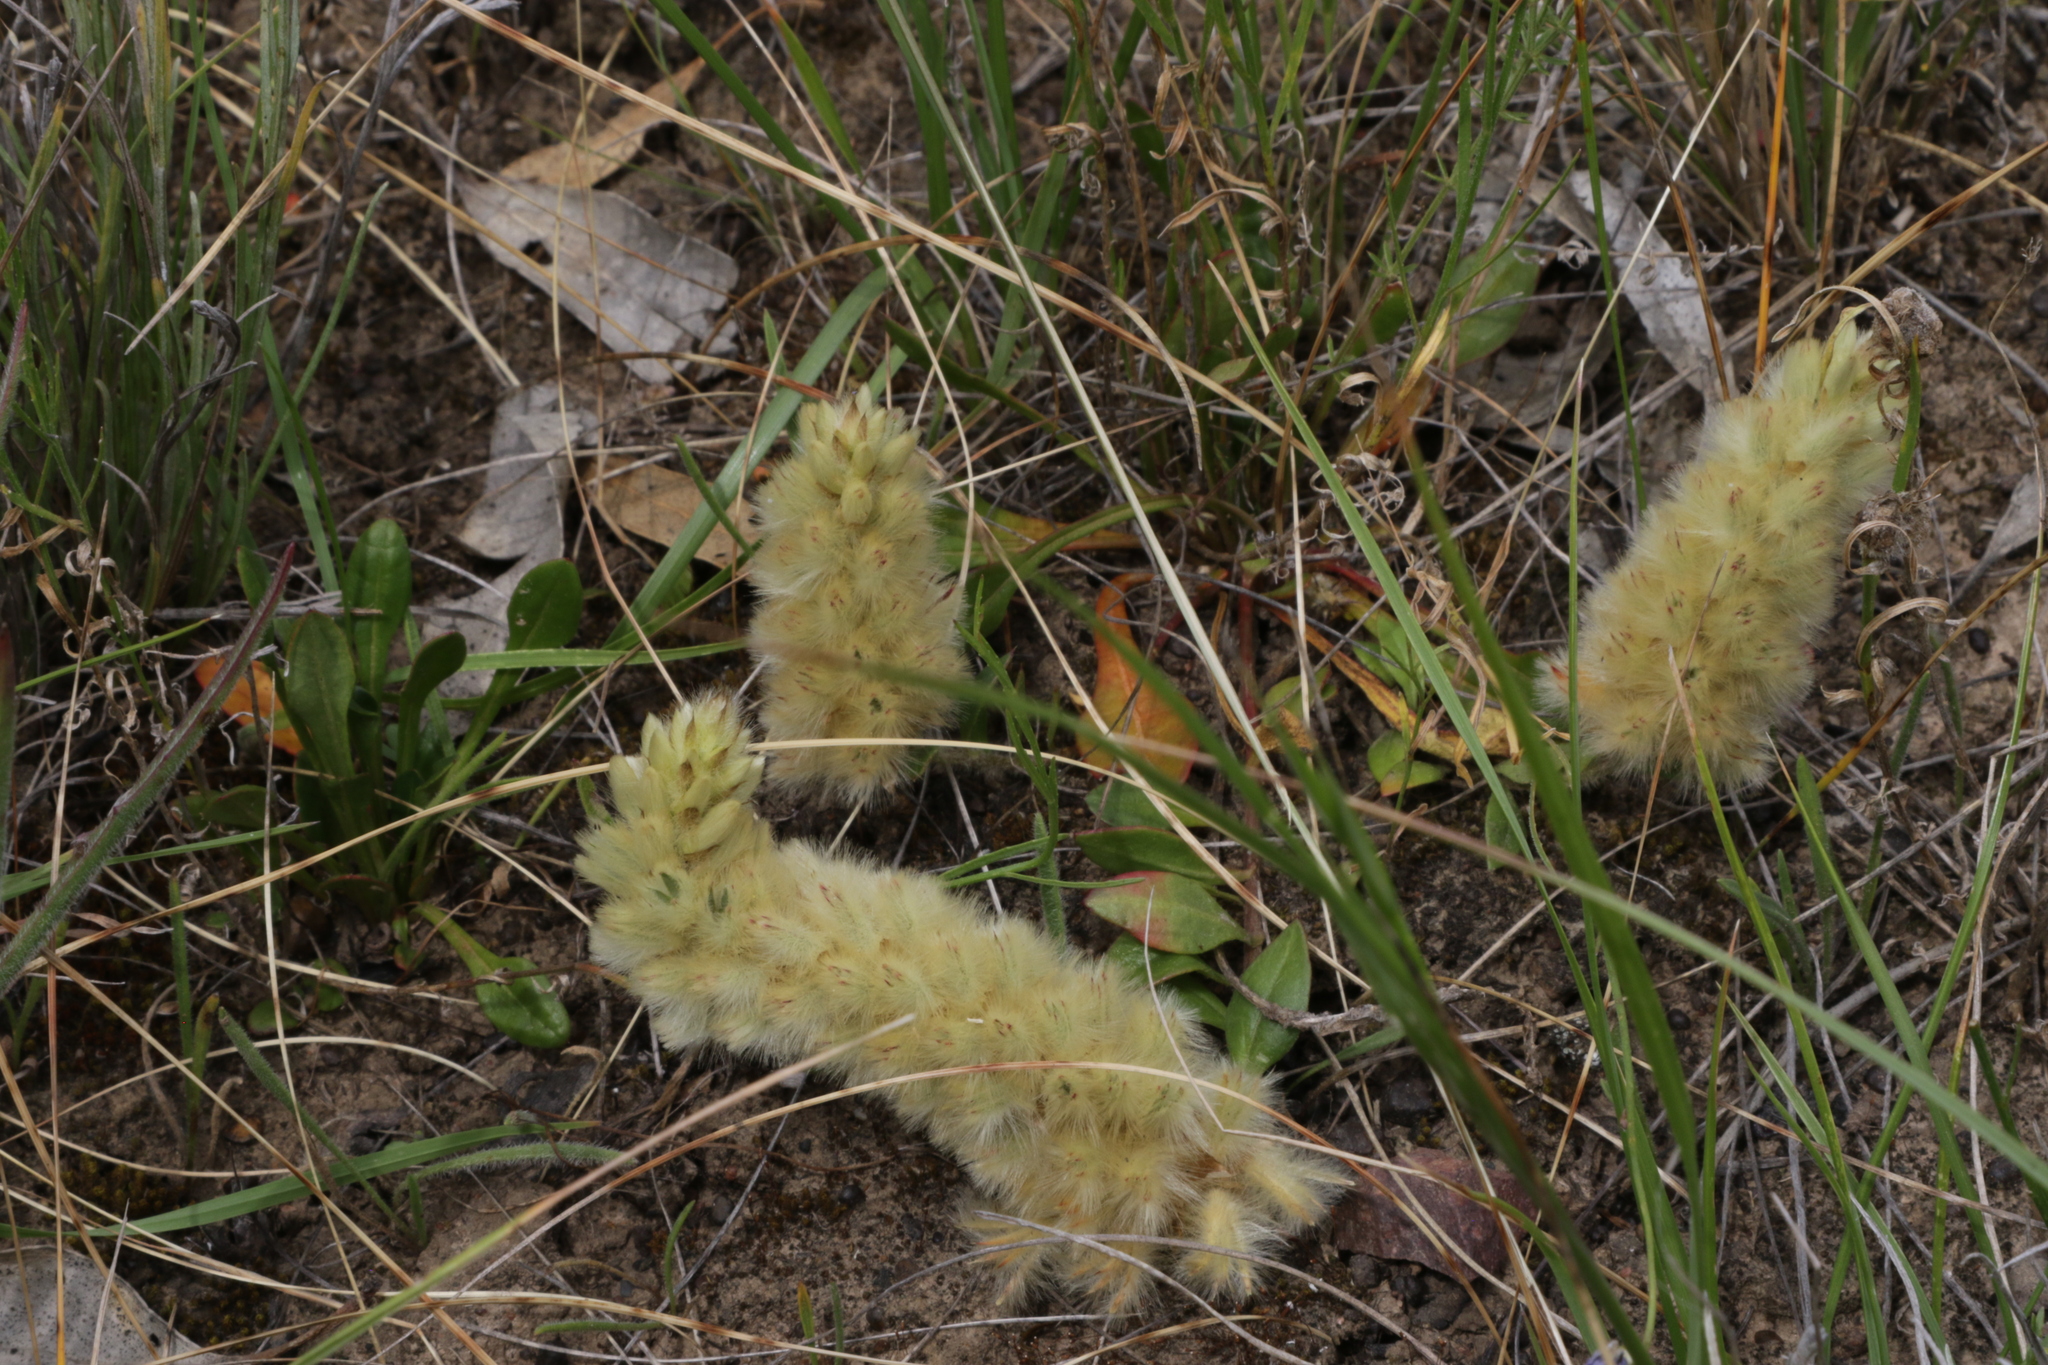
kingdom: Plantae
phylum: Tracheophyta
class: Magnoliopsida
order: Caryophyllales
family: Amaranthaceae
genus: Ptilotus
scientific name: Ptilotus spathulatus
